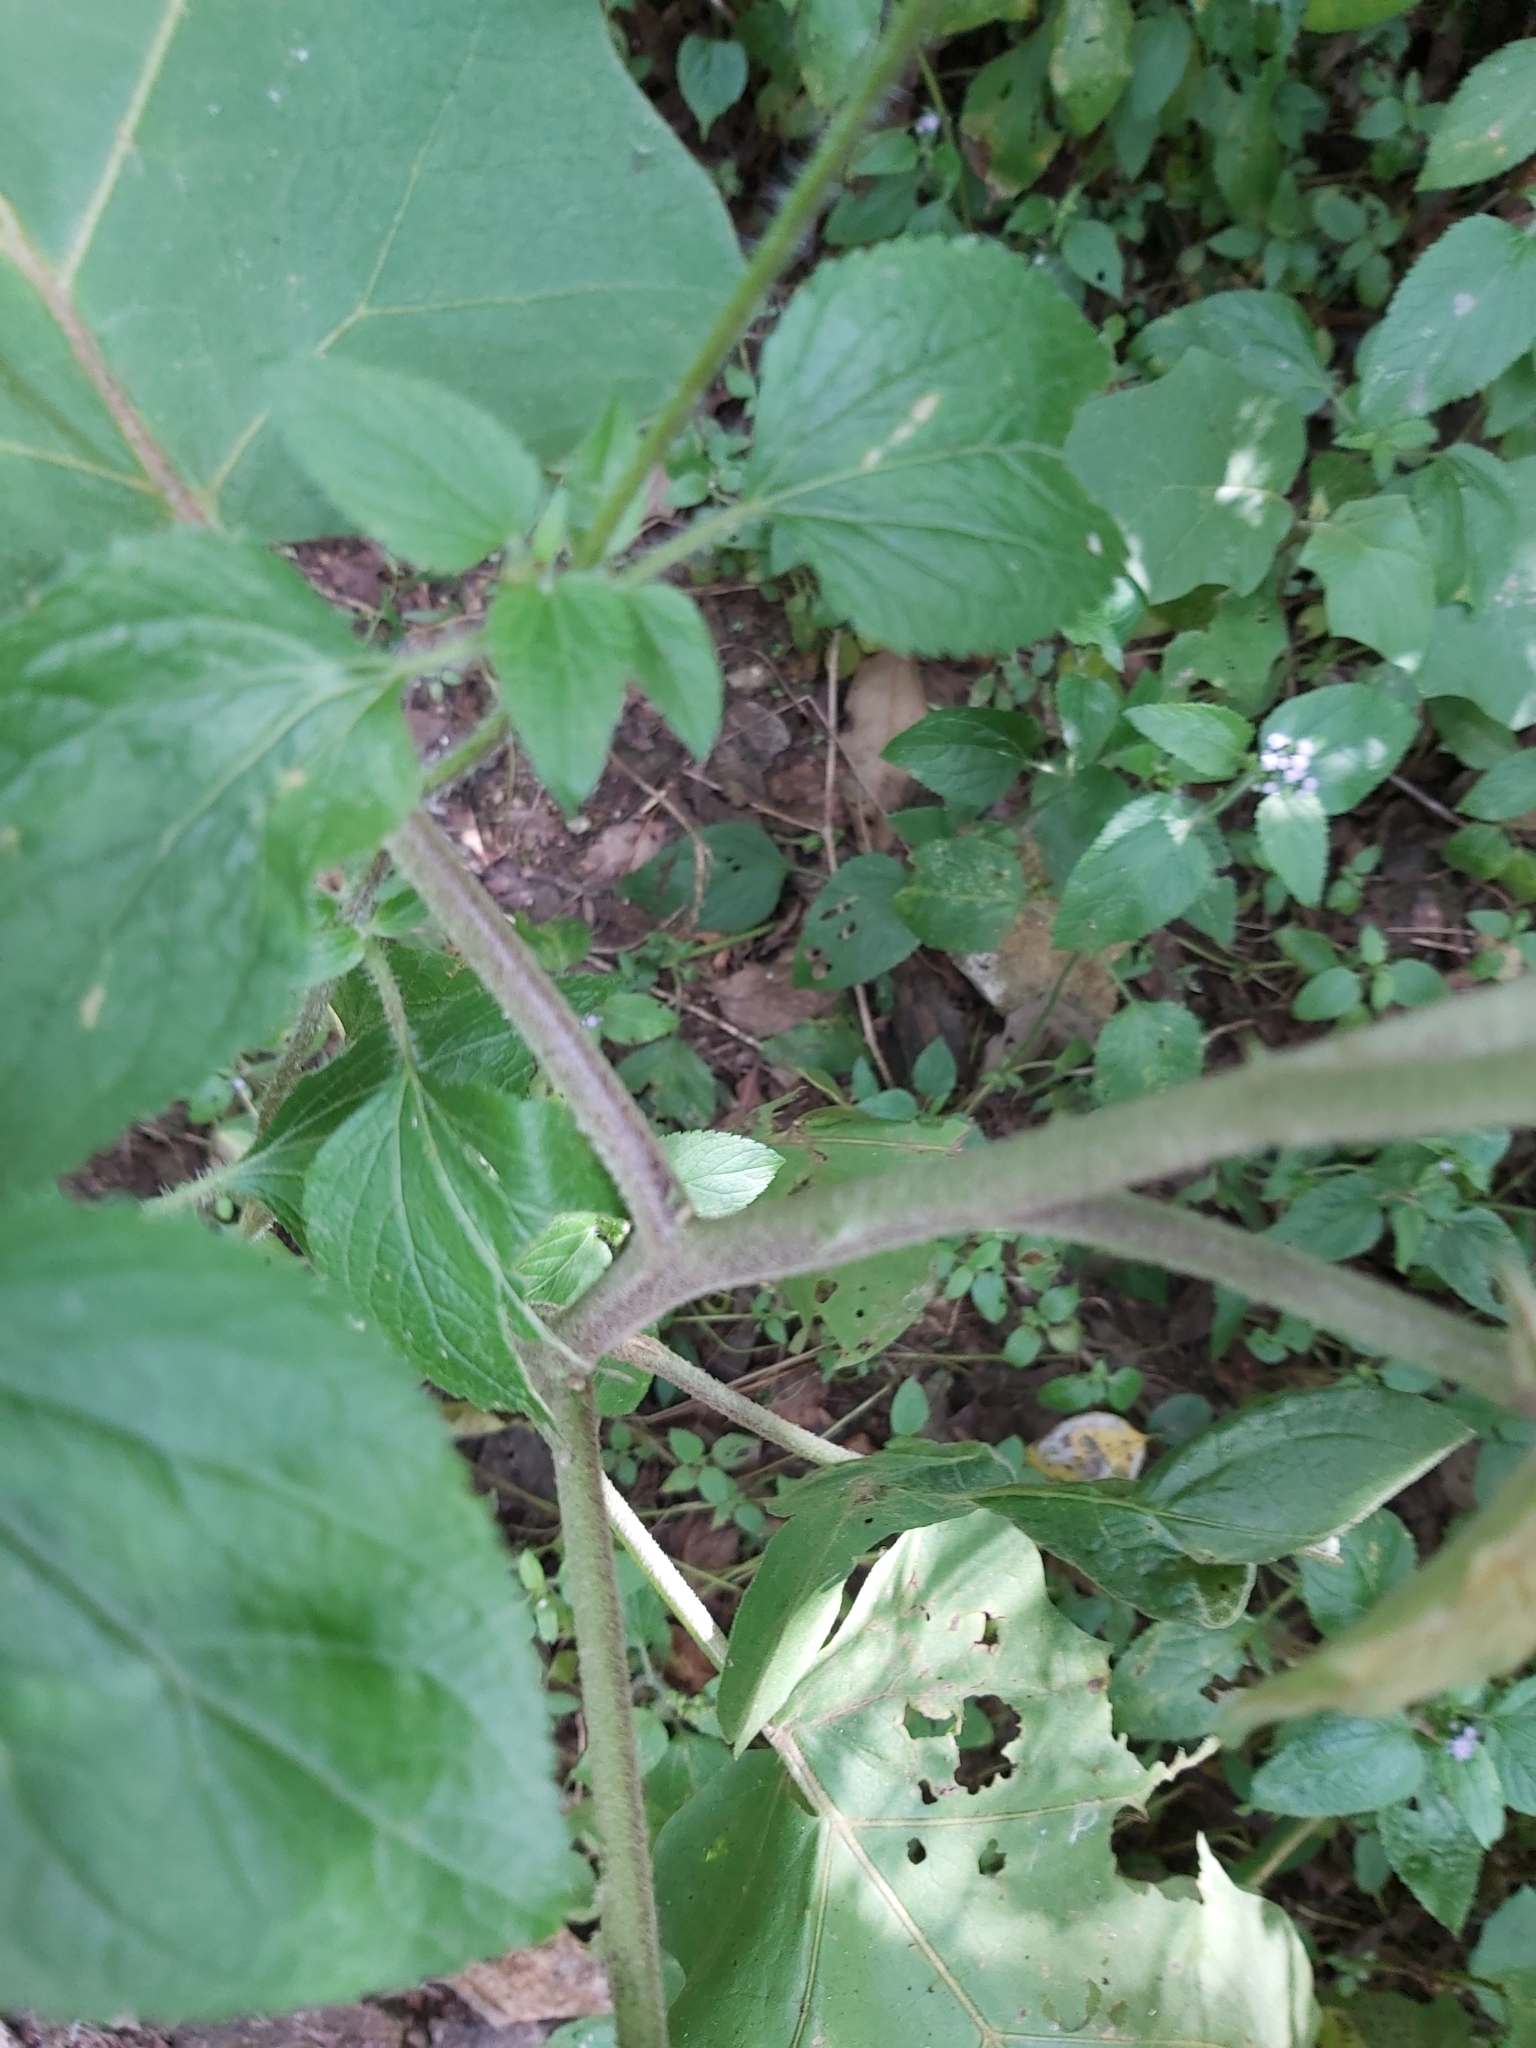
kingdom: Plantae
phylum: Tracheophyta
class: Magnoliopsida
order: Solanales
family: Solanaceae
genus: Solanum
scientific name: Solanum torvum
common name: Turkey berry
